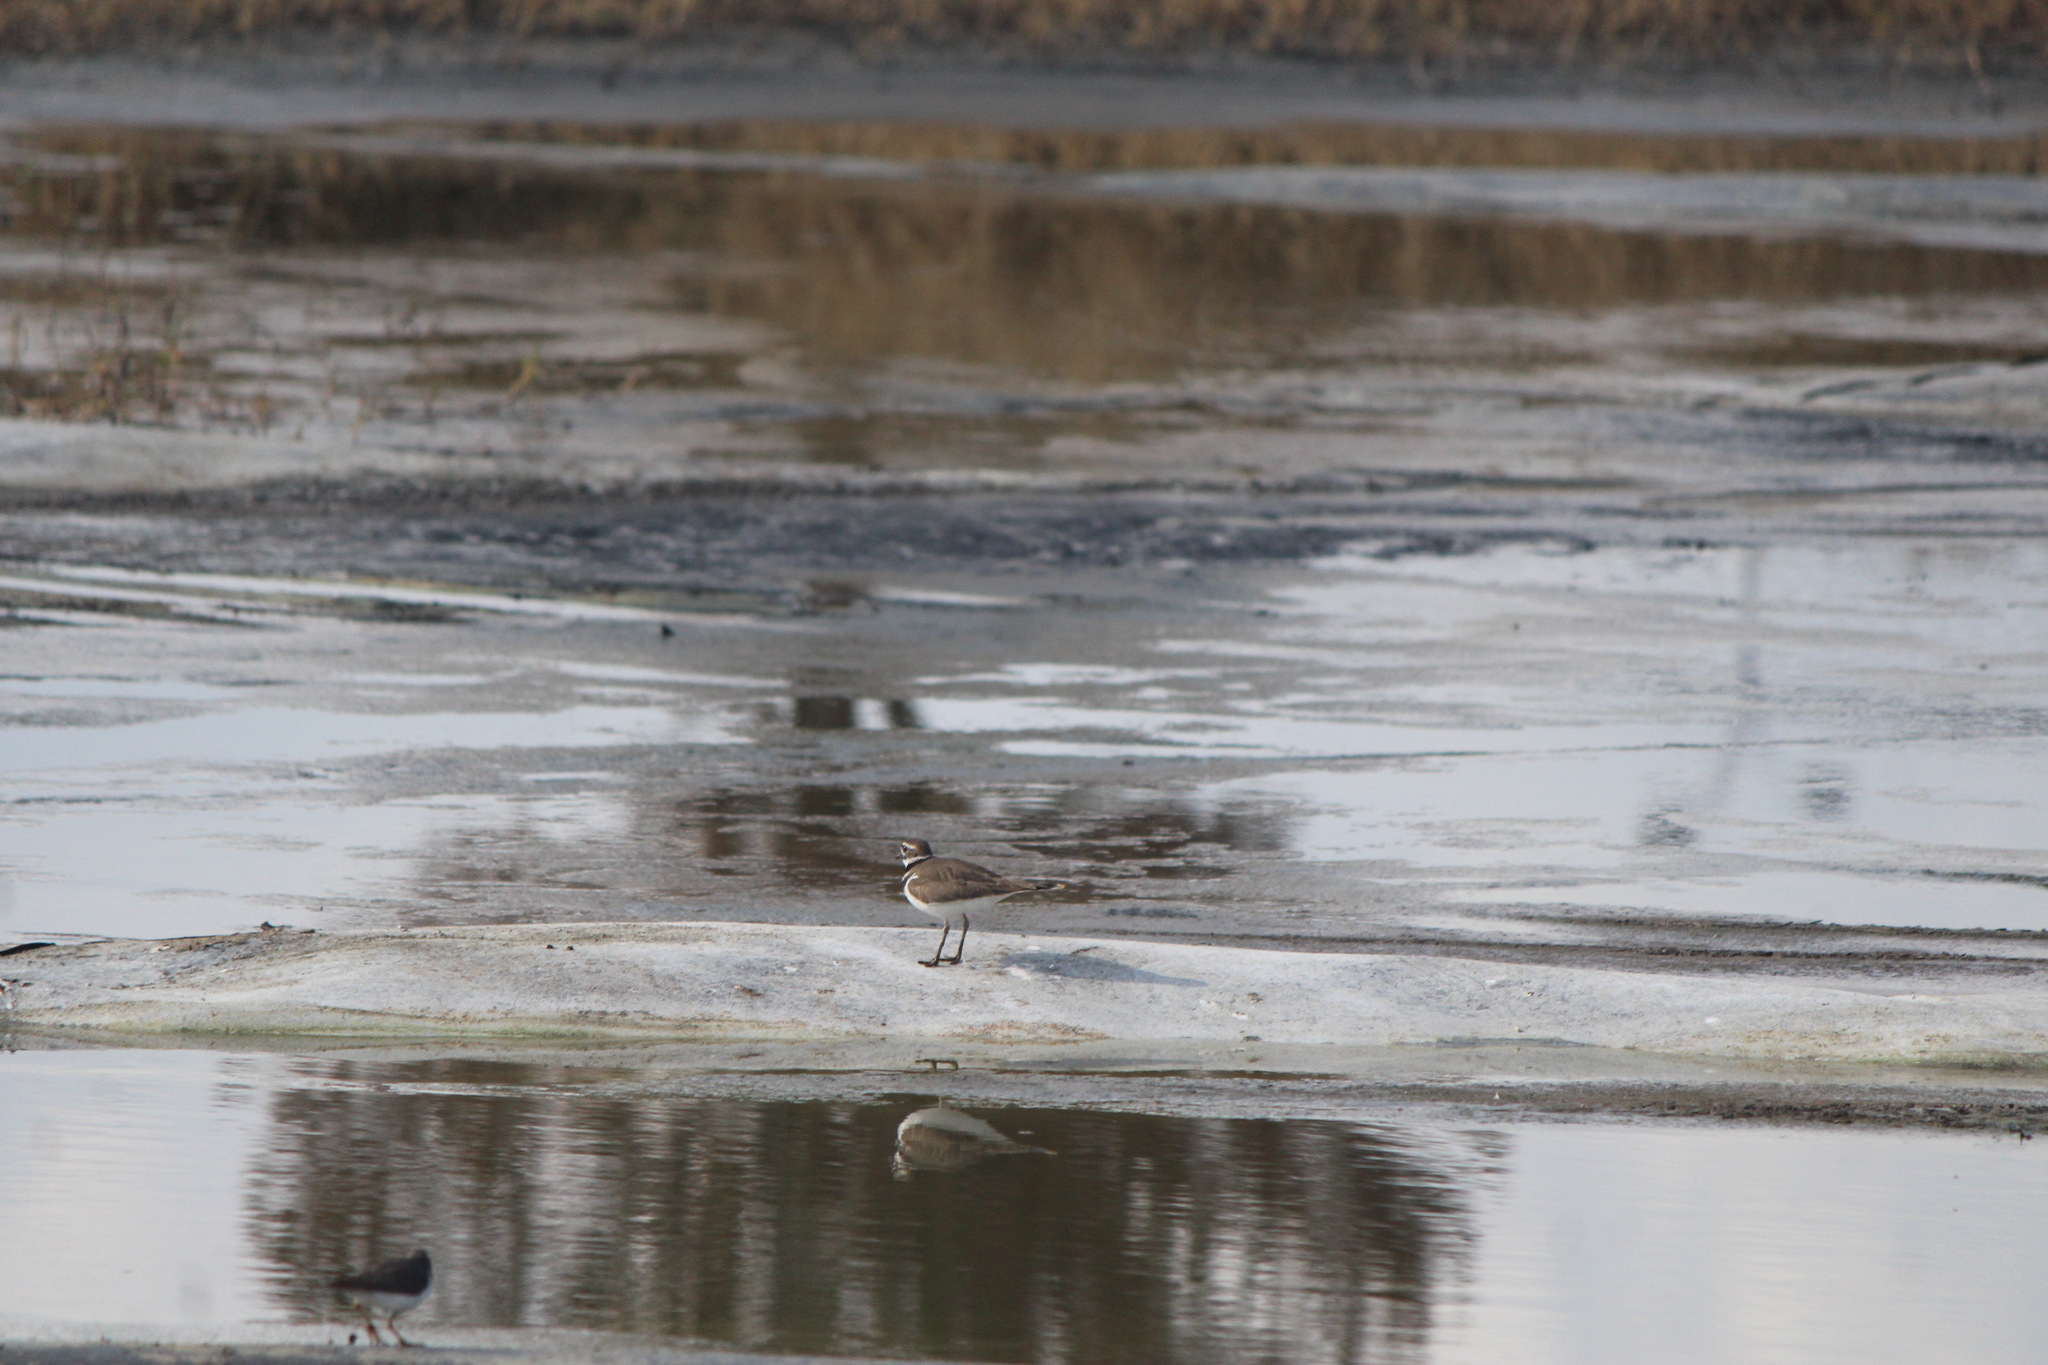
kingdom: Animalia
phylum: Chordata
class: Aves
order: Charadriiformes
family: Charadriidae
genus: Charadrius
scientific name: Charadrius vociferus
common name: Killdeer
